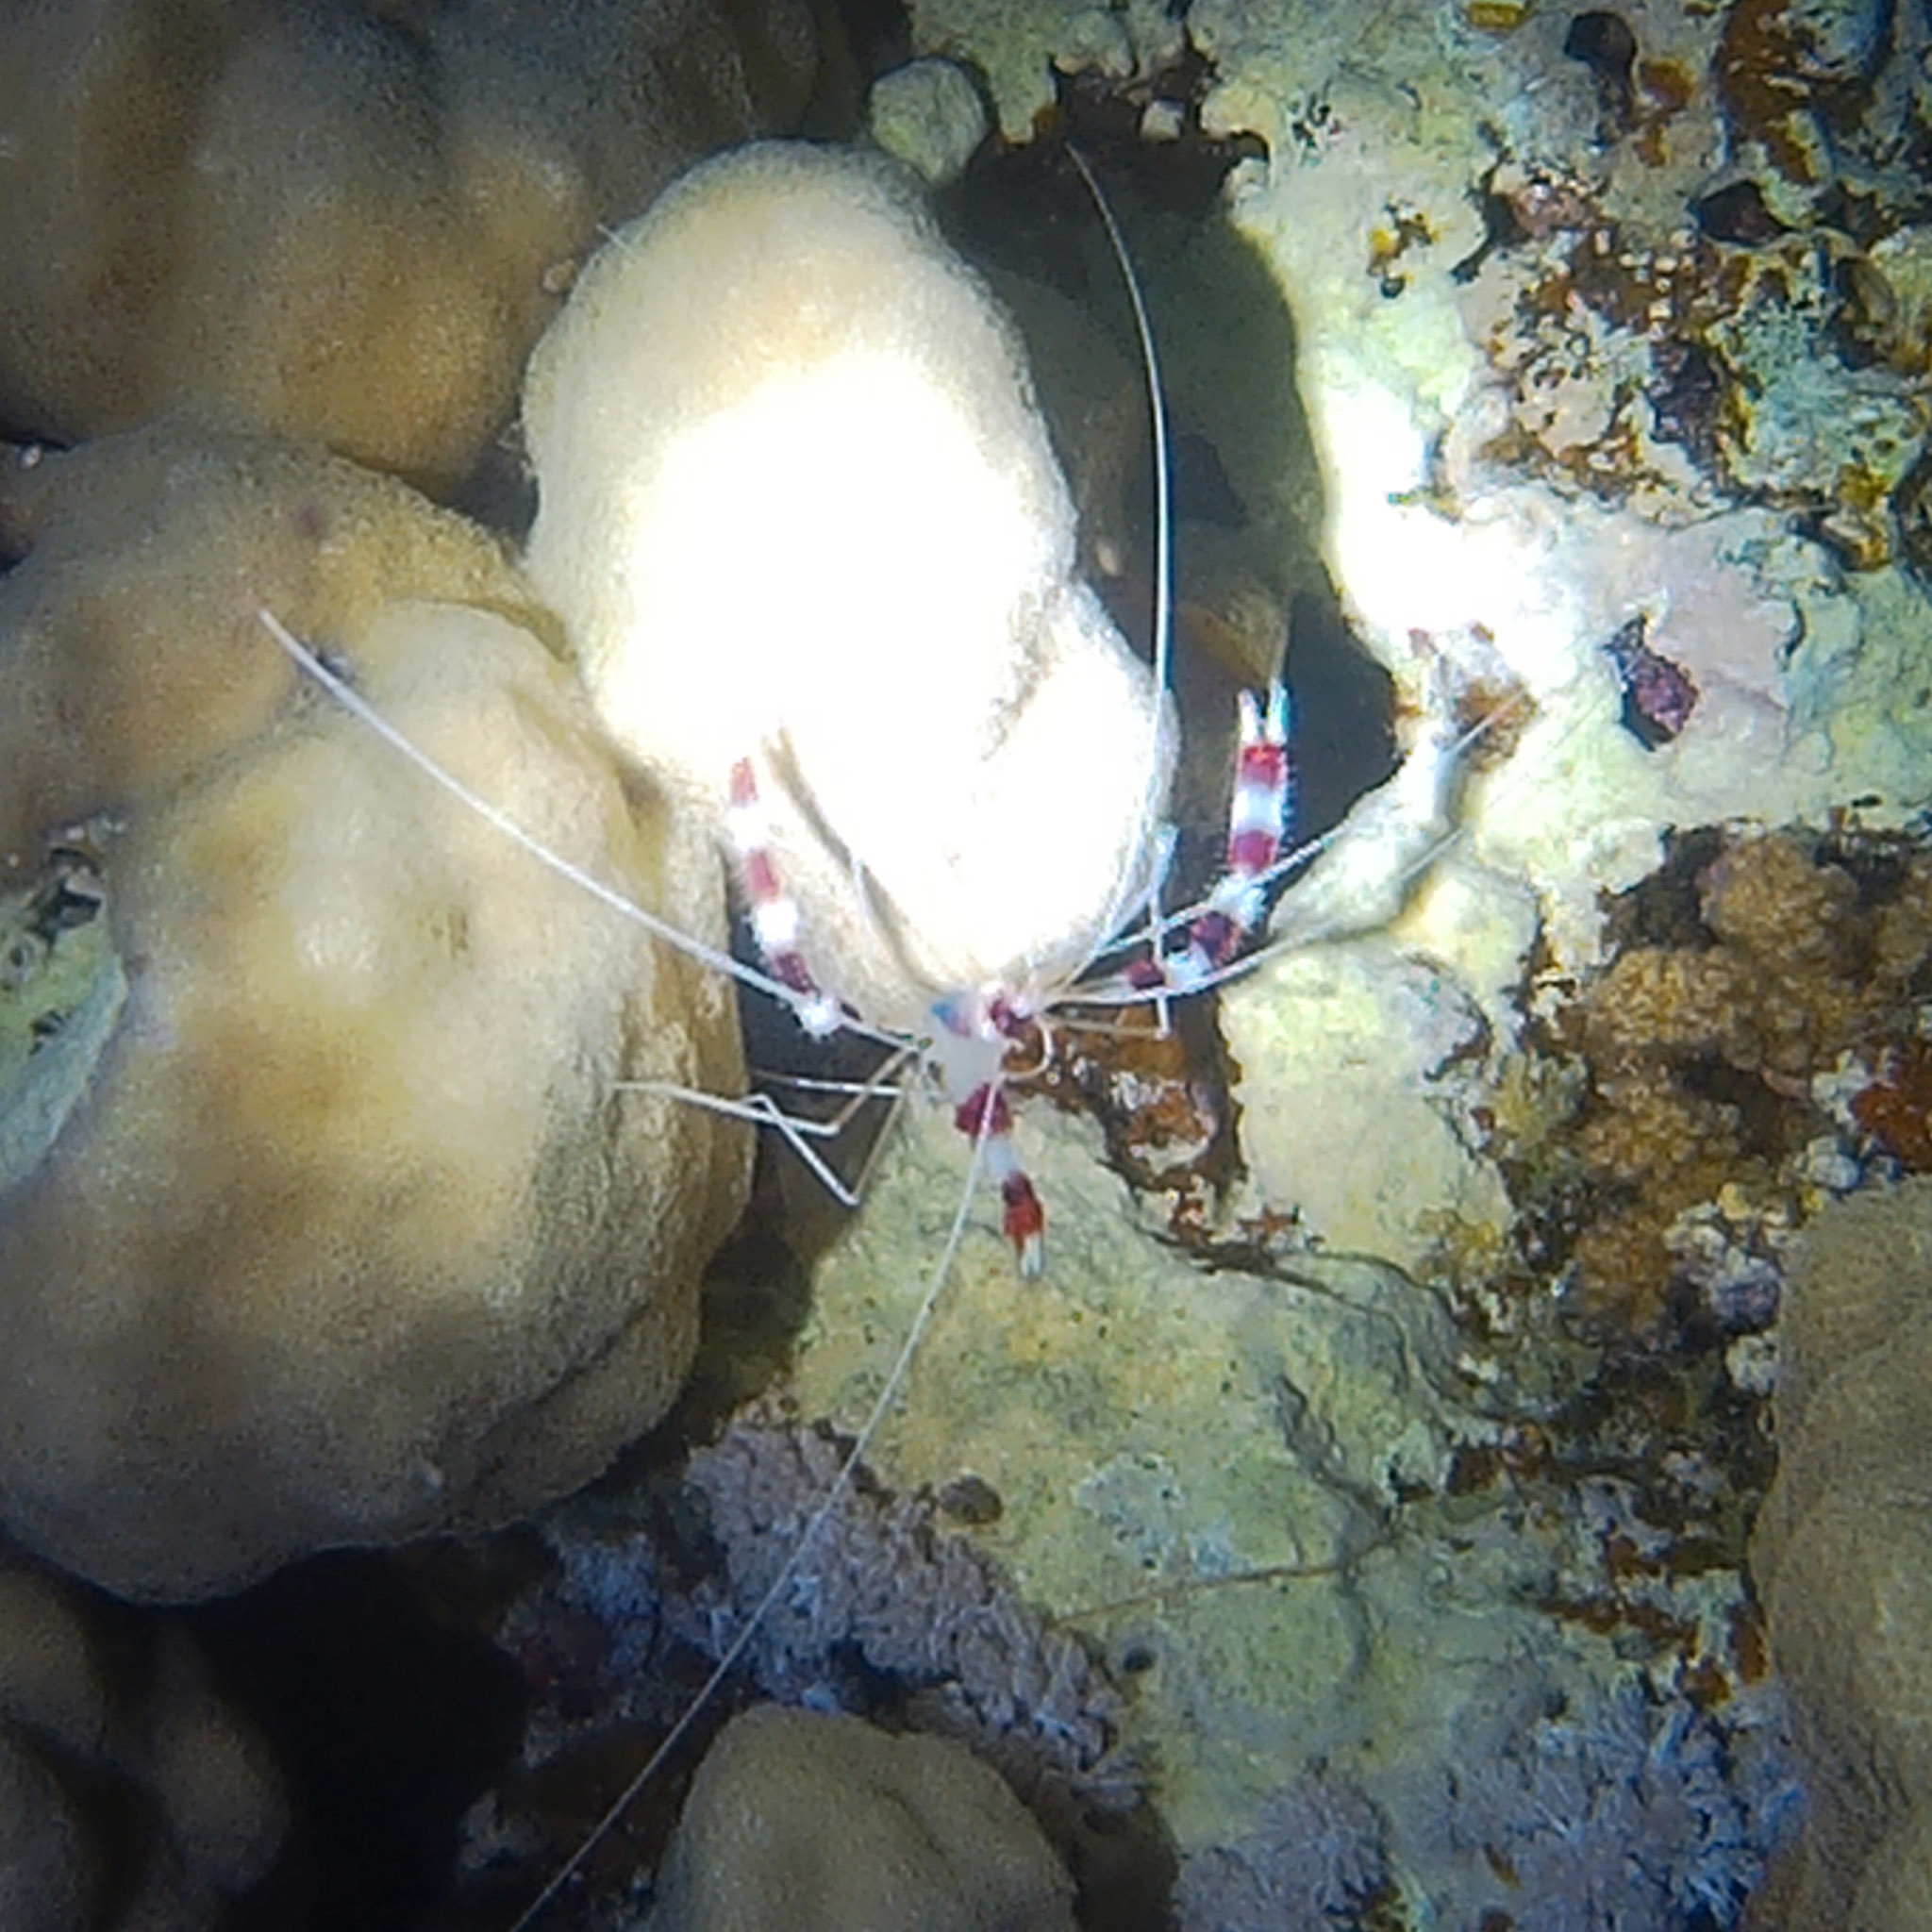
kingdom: Animalia
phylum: Arthropoda
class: Malacostraca
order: Decapoda
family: Stenopodidae
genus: Stenopus
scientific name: Stenopus hispidus
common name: Banded coral shrimp
